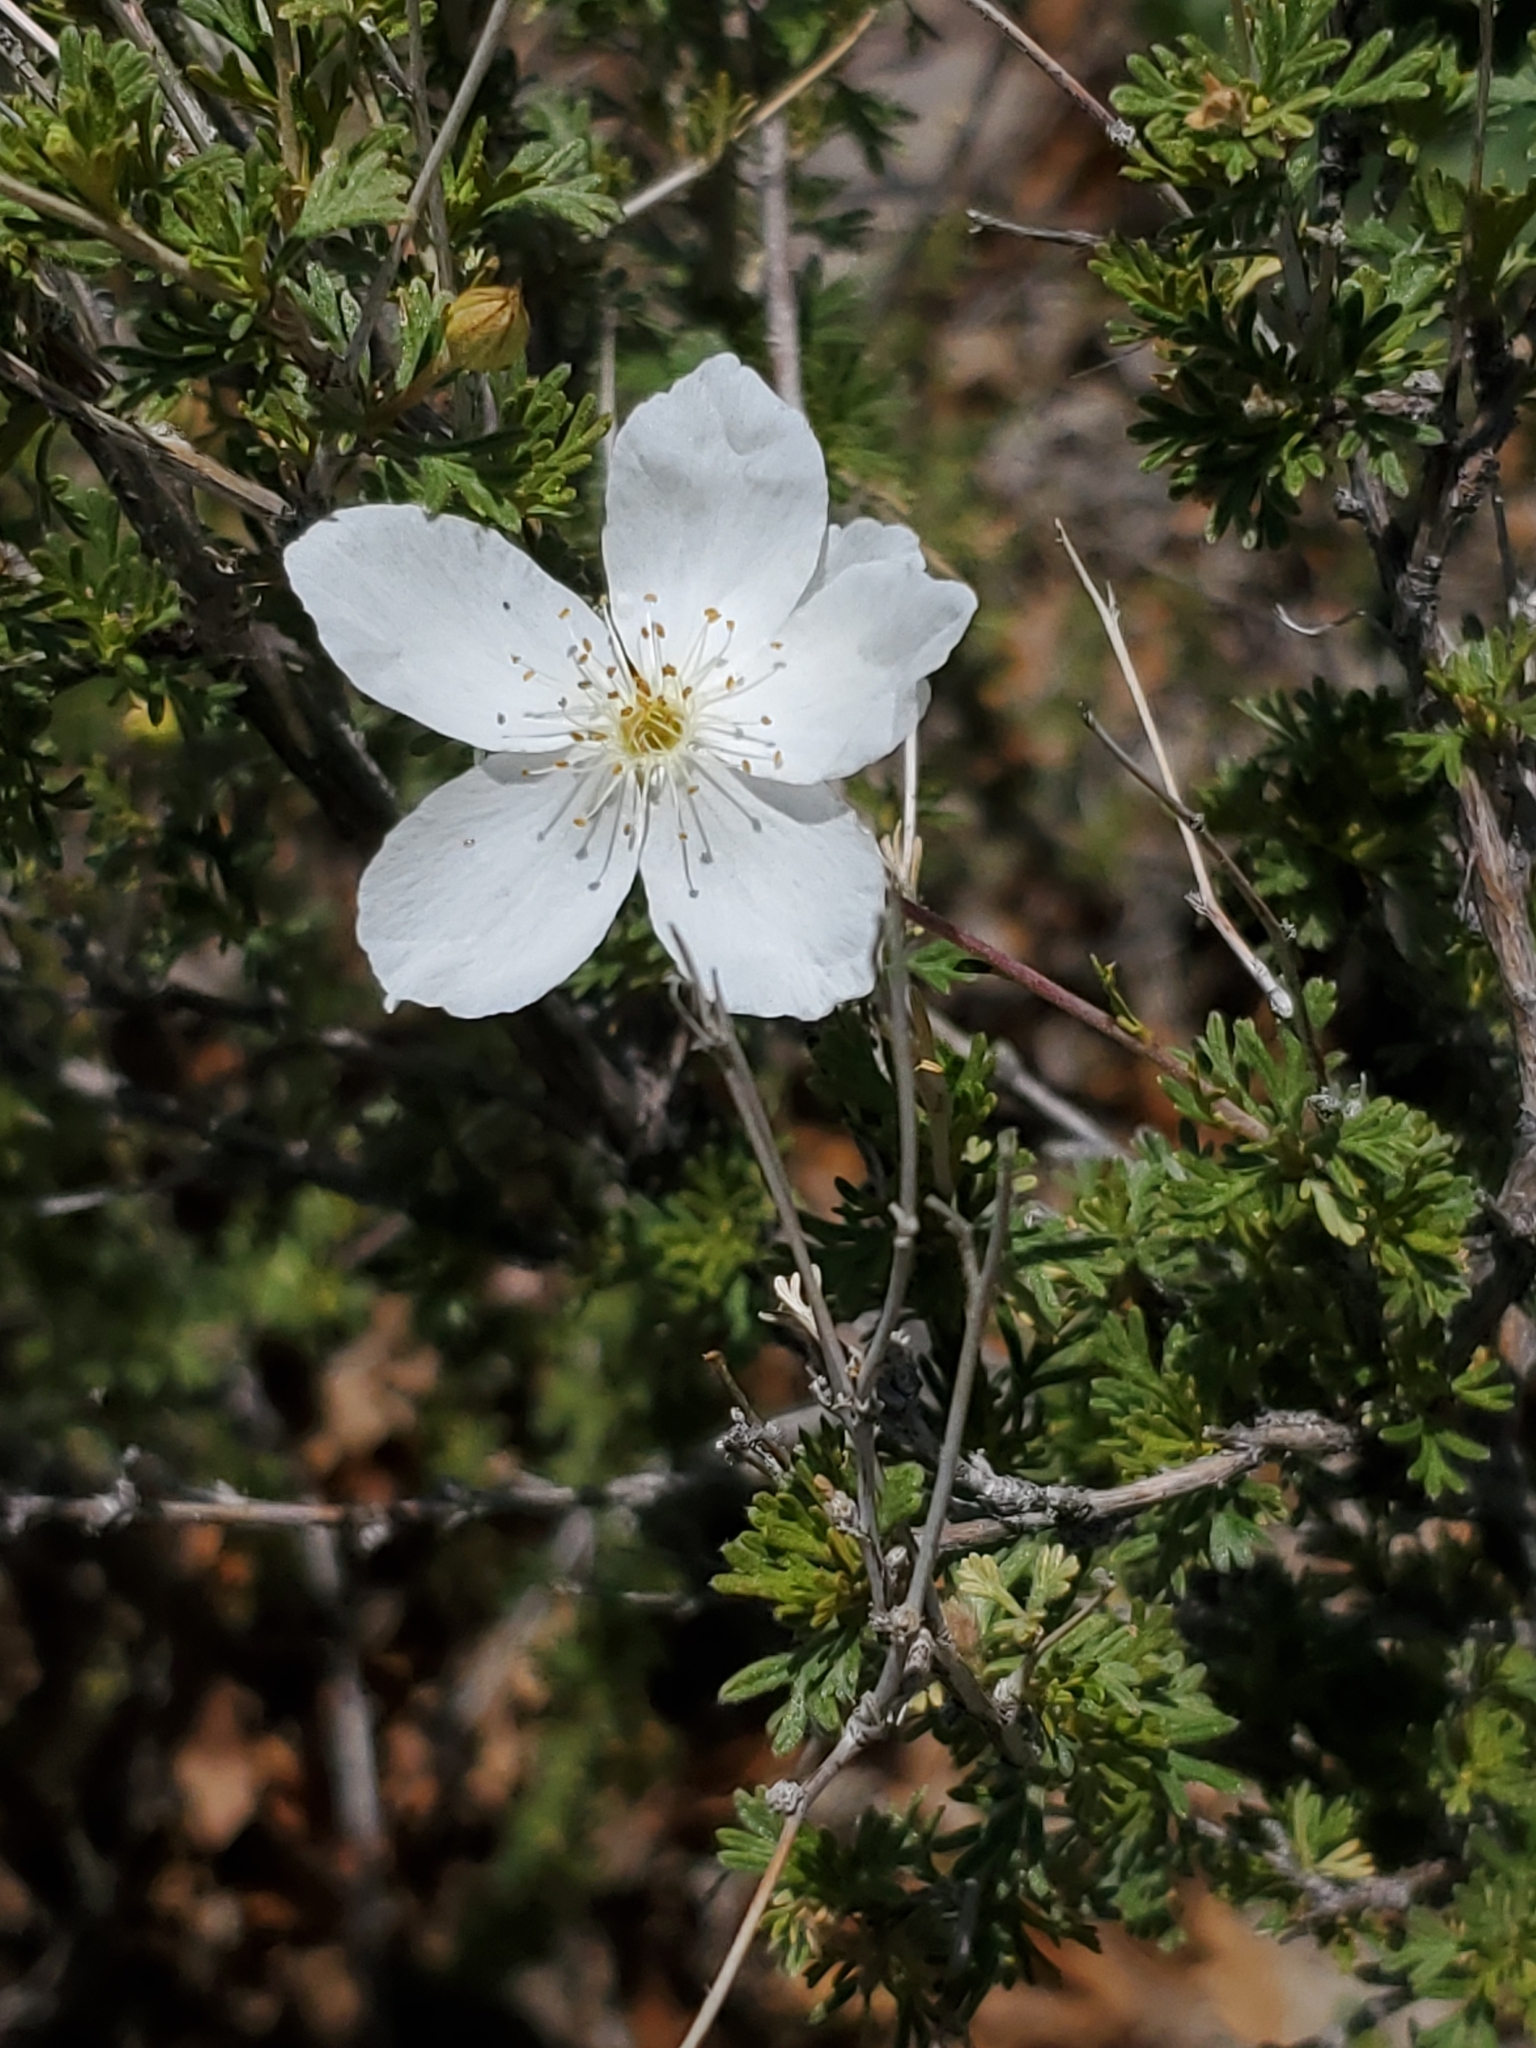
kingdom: Plantae
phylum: Tracheophyta
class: Magnoliopsida
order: Rosales
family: Rosaceae
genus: Fallugia
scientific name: Fallugia paradoxa
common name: Apache-plume
